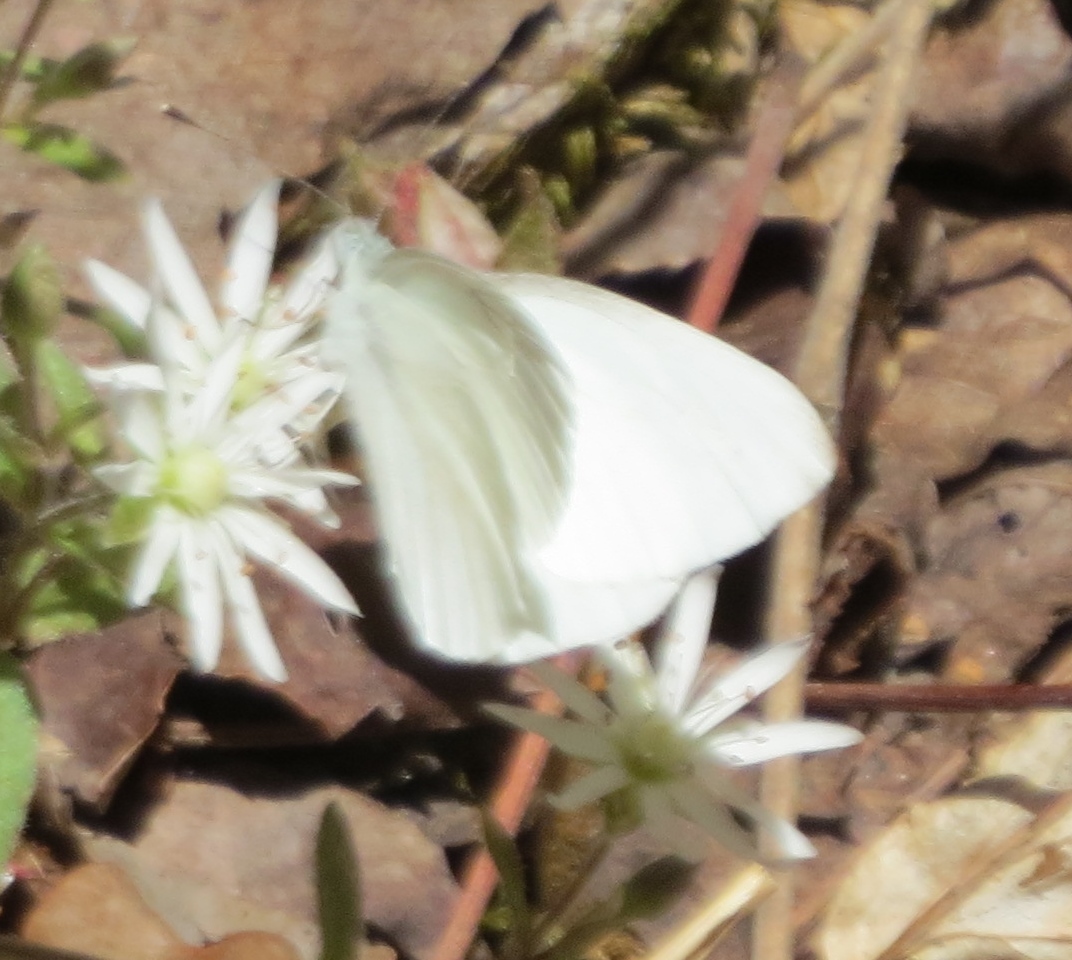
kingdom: Animalia
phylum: Arthropoda
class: Insecta
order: Lepidoptera
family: Pieridae
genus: Pieris
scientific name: Pieris virginiensis
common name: West virginia white
